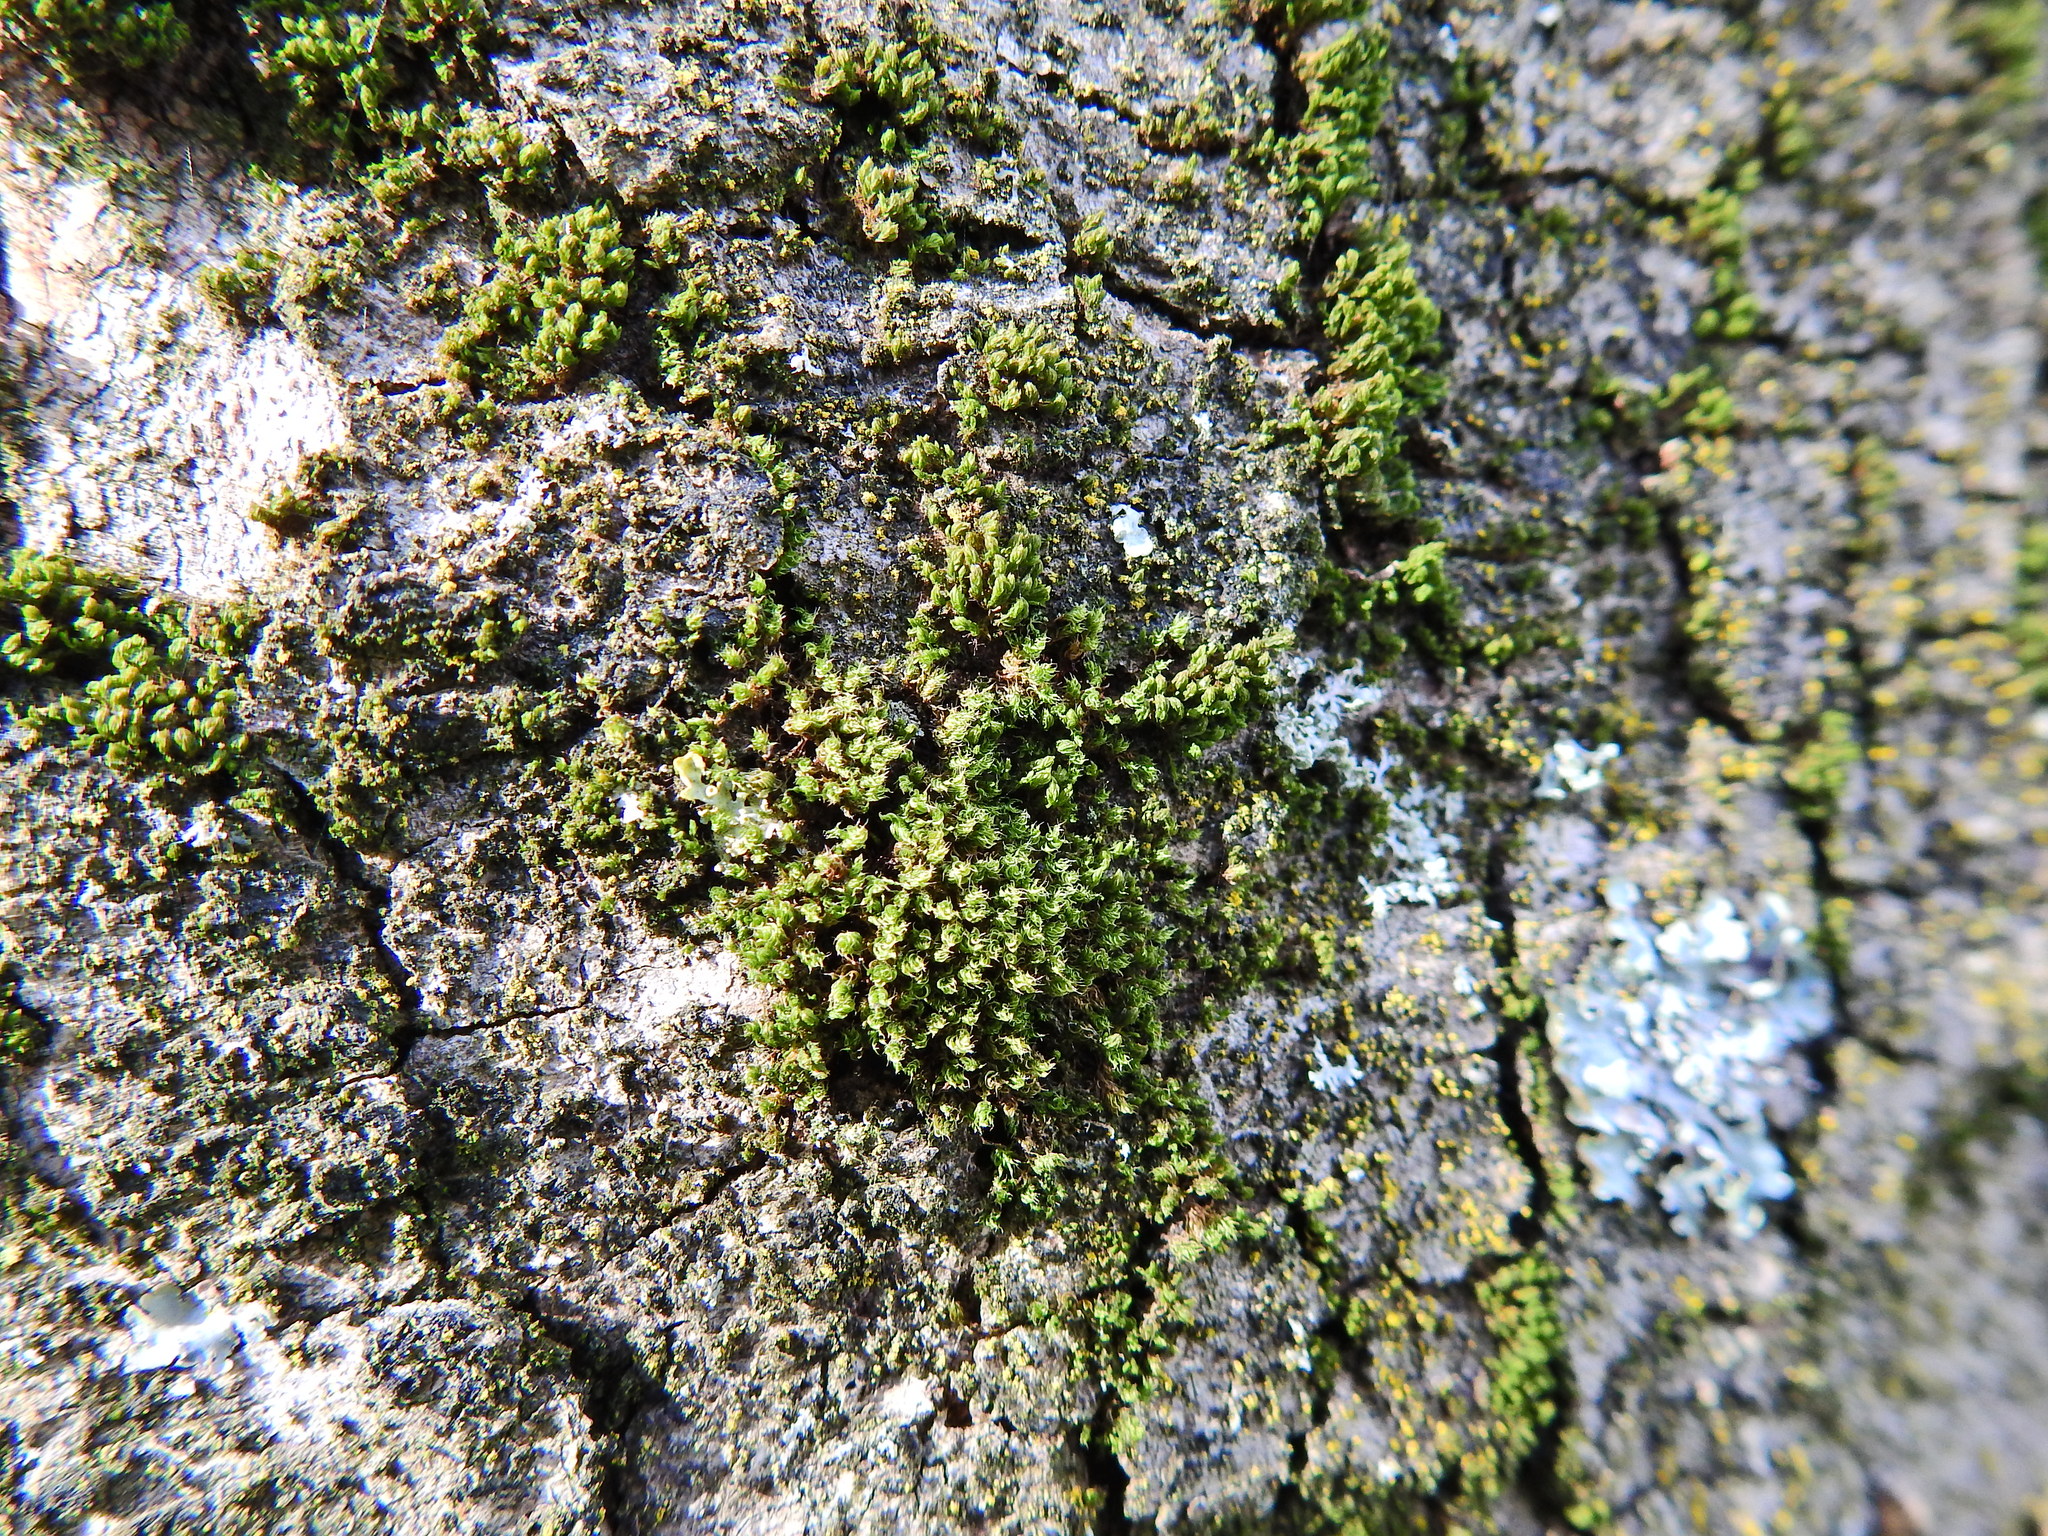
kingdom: Plantae
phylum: Bryophyta
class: Bryopsida
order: Bryales
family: Bryaceae
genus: Rosulabryum
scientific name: Rosulabryum capillare
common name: Capillary thread-moss
